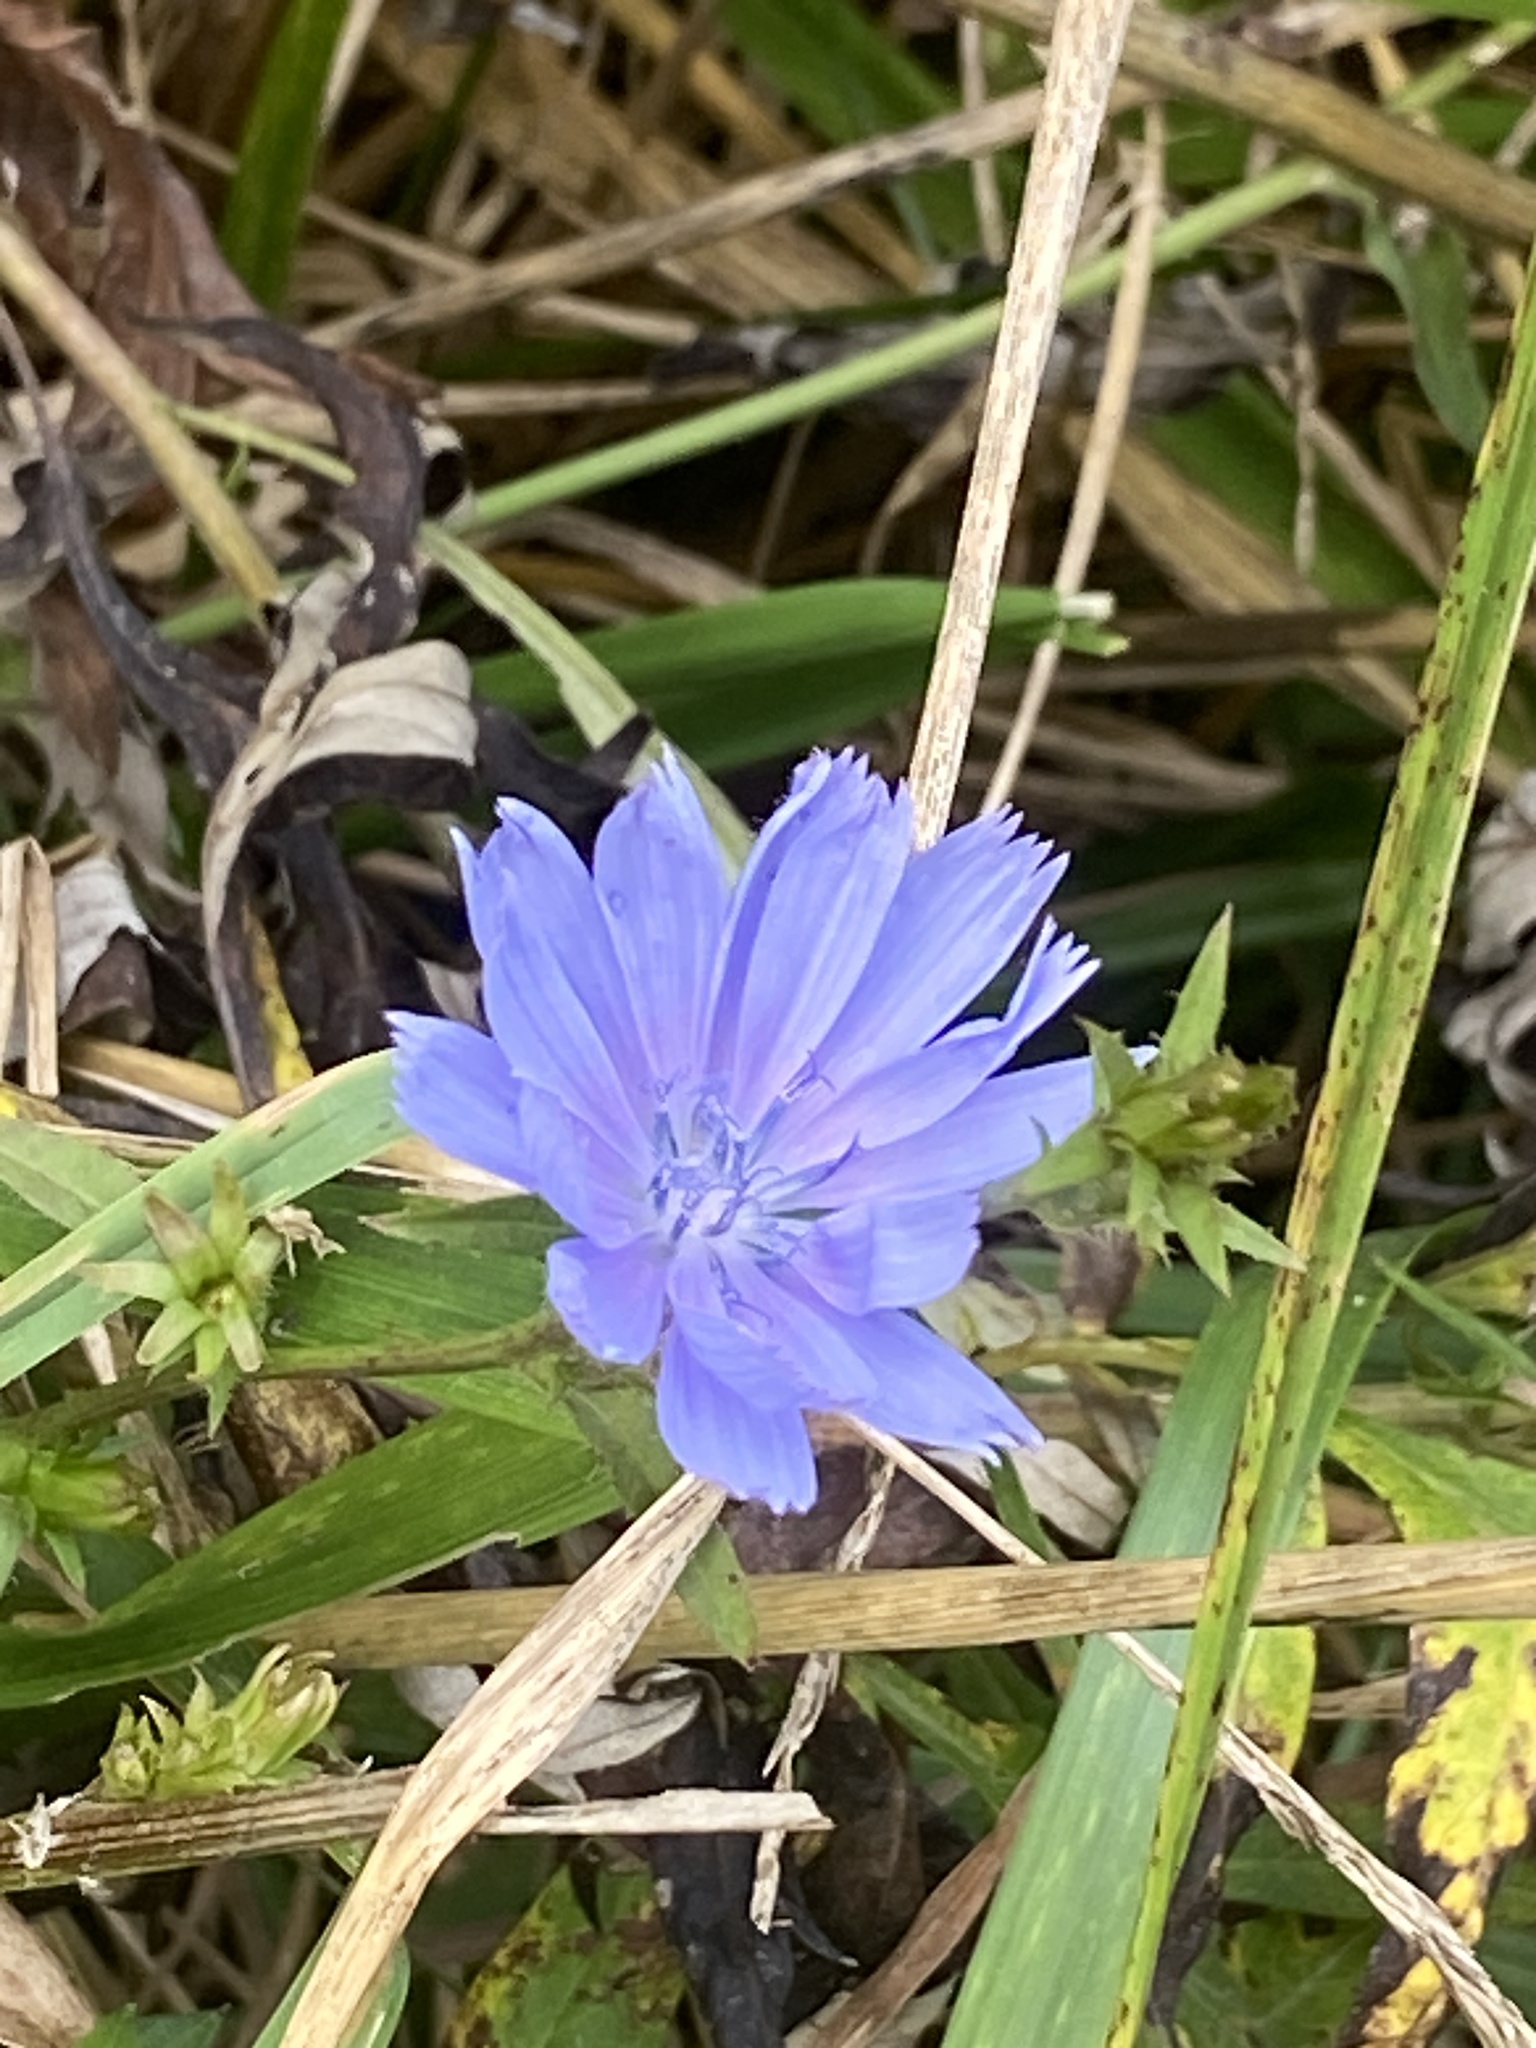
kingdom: Plantae
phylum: Tracheophyta
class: Magnoliopsida
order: Asterales
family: Asteraceae
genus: Cichorium
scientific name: Cichorium intybus
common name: Chicory
